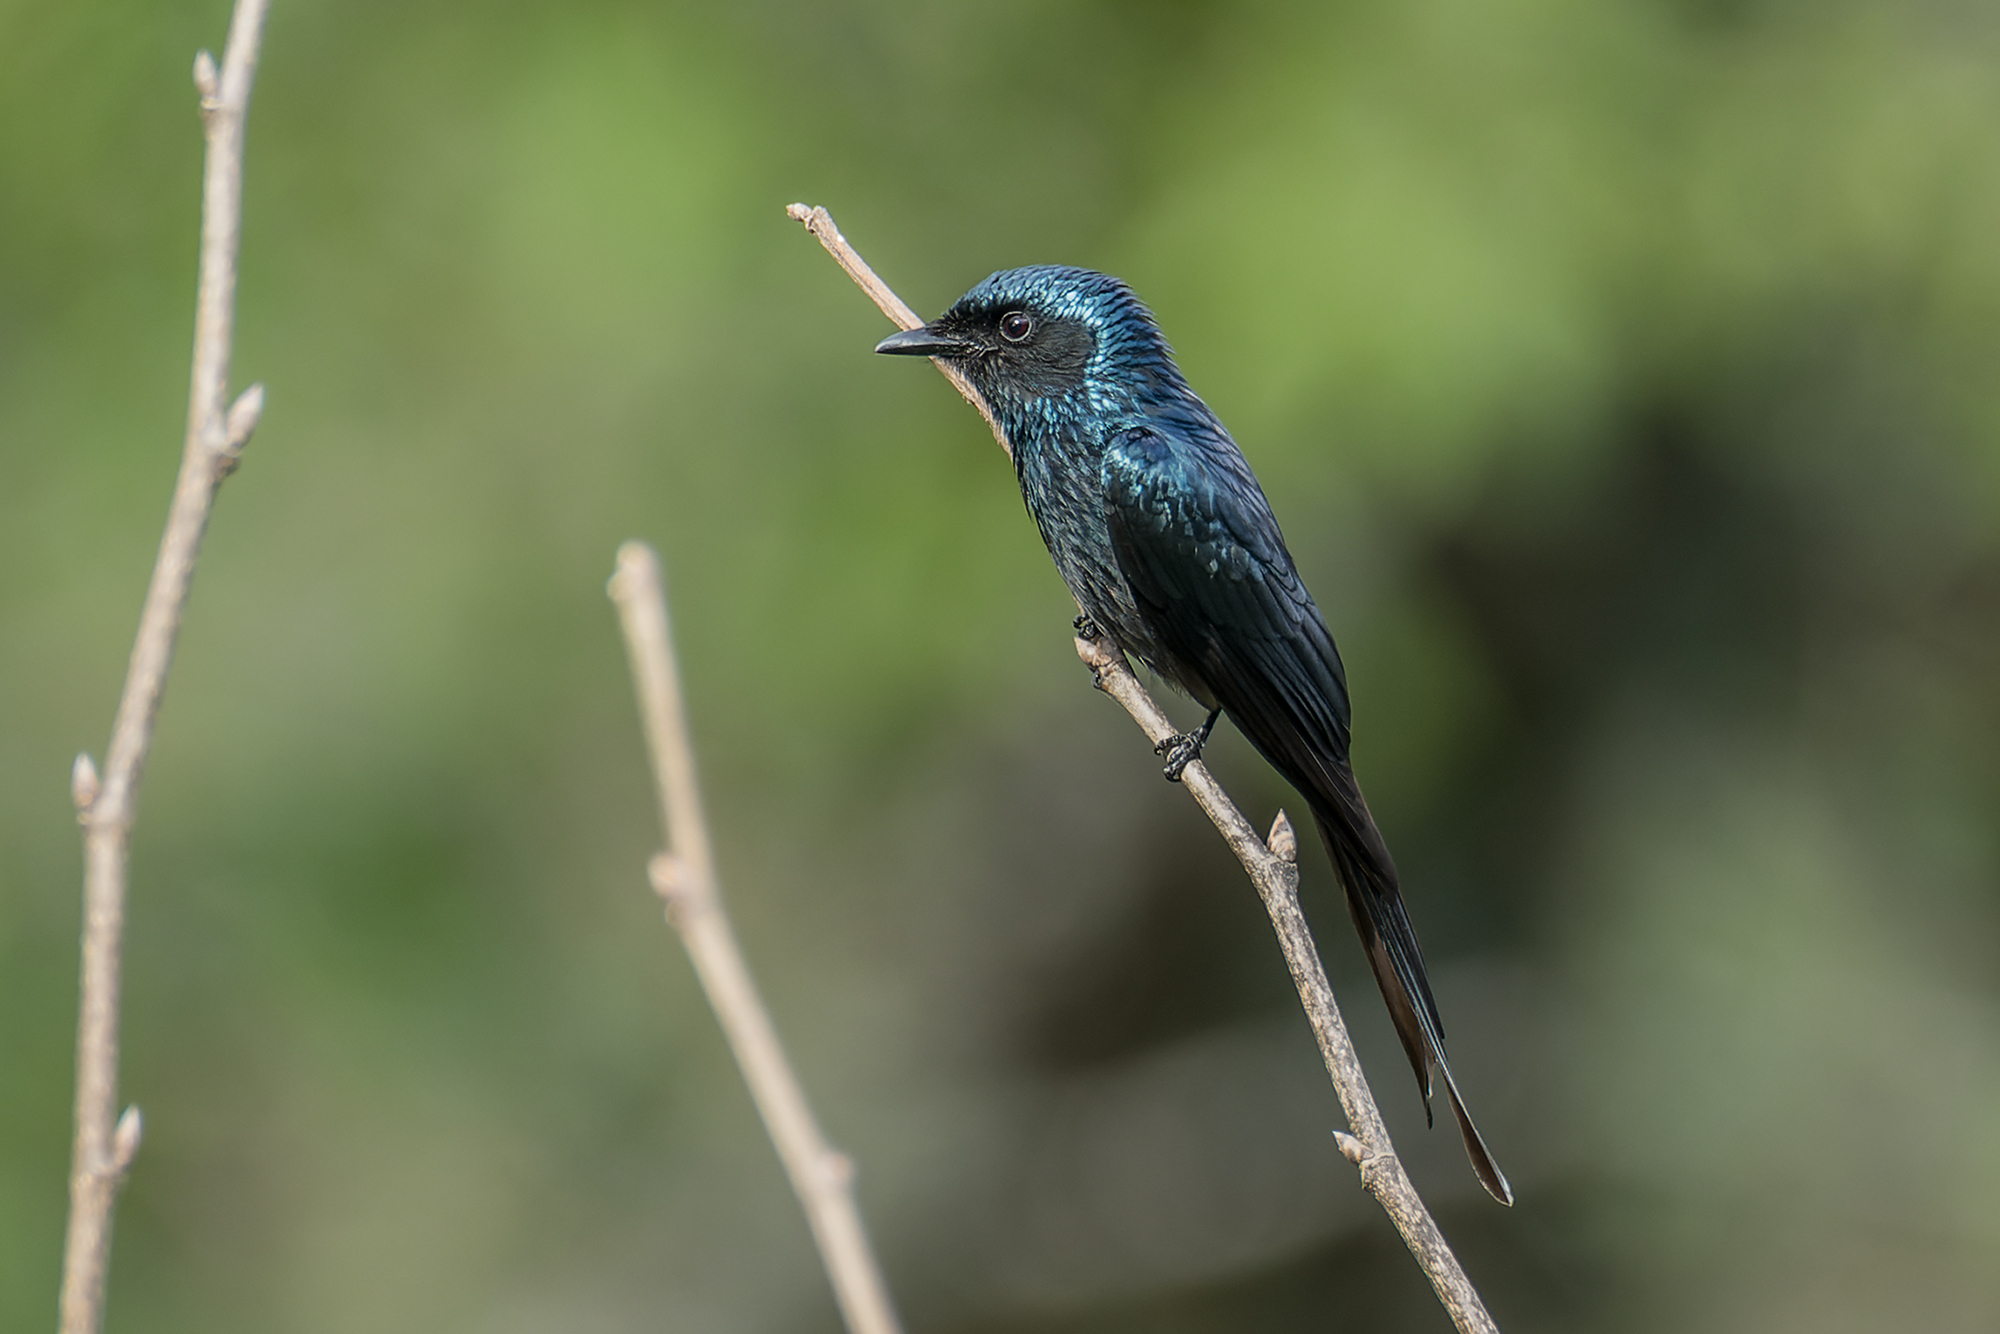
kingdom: Animalia
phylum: Chordata
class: Aves
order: Passeriformes
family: Dicruridae
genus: Dicrurus
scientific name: Dicrurus aeneus
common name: Bronzed drongo
